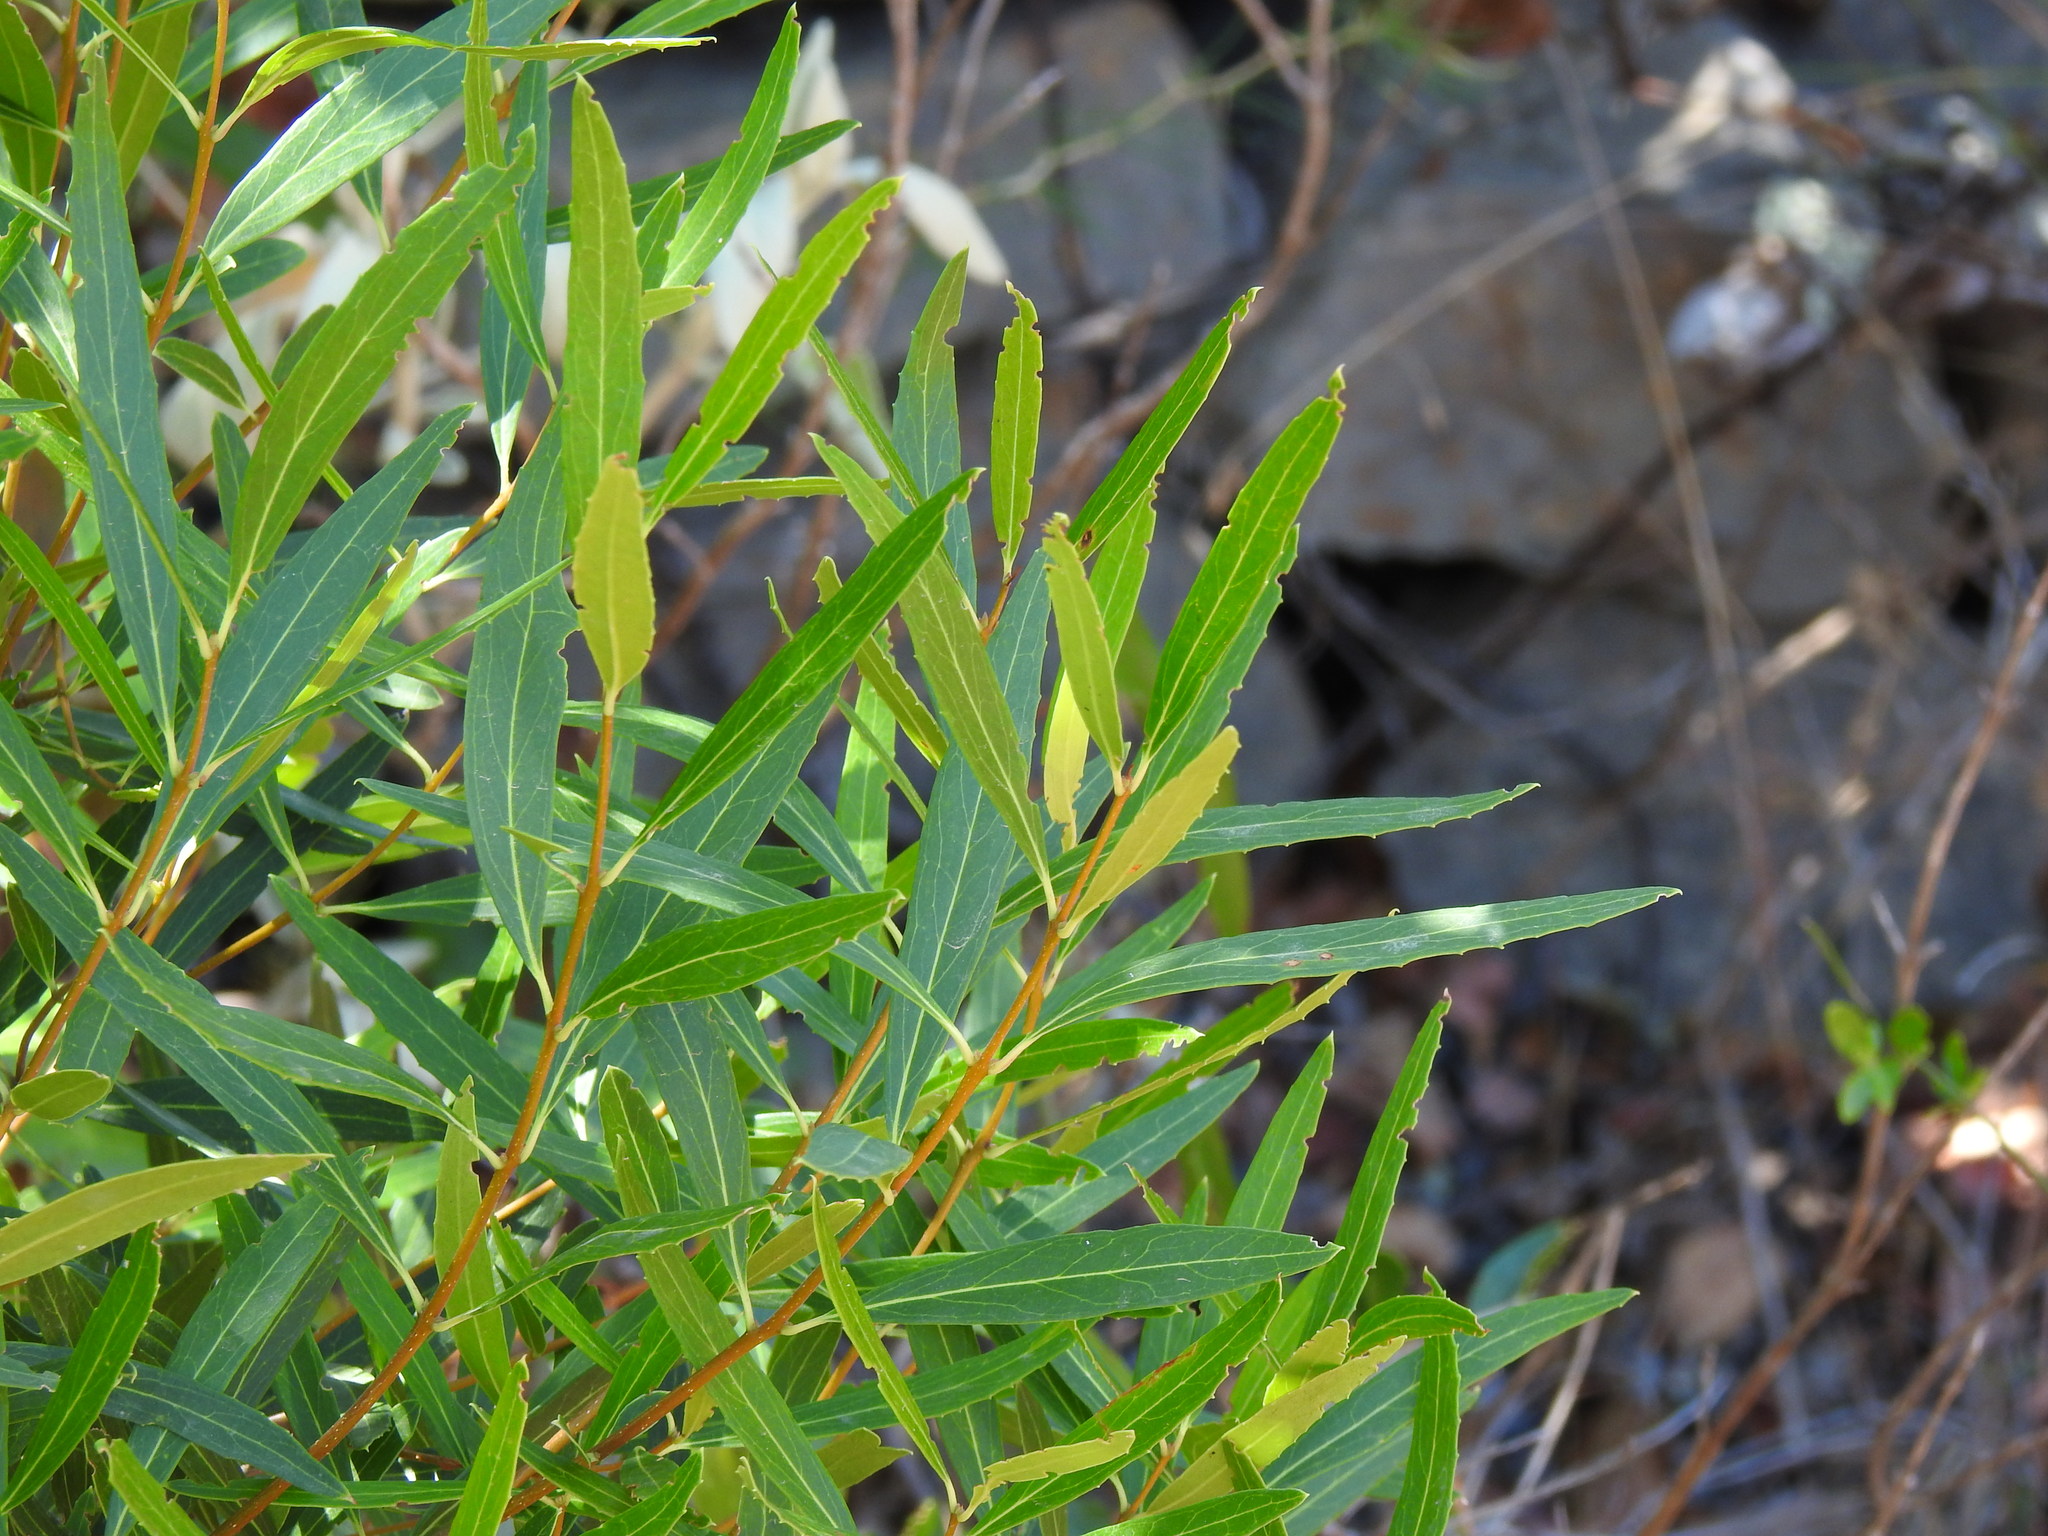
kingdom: Plantae
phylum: Tracheophyta
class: Magnoliopsida
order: Lamiales
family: Oleaceae
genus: Phillyrea
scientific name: Phillyrea angustifolia
